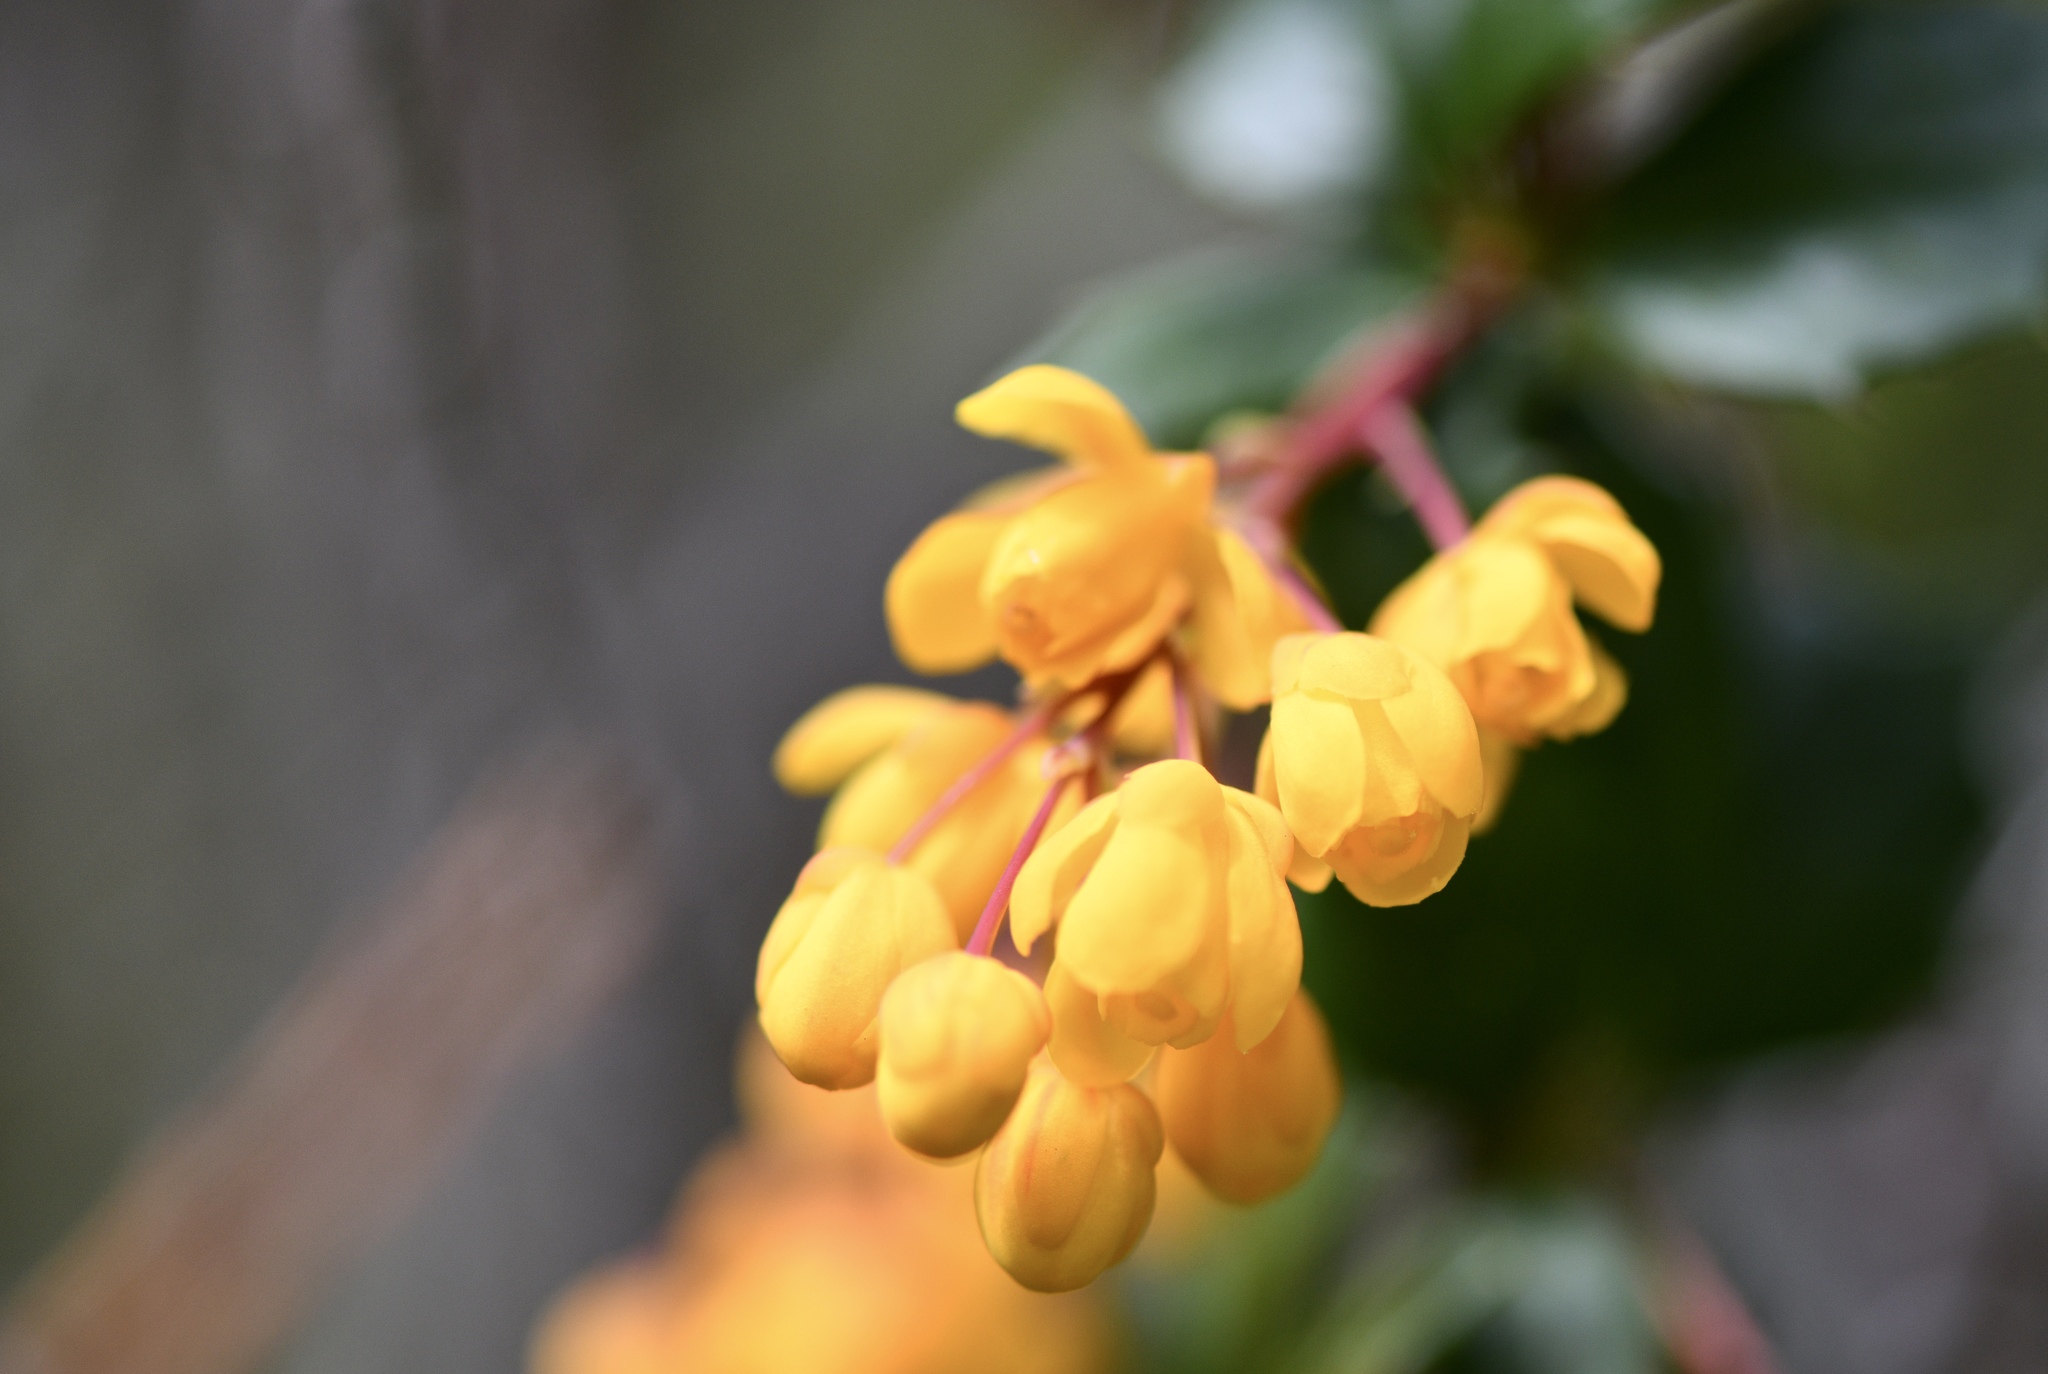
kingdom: Plantae
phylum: Tracheophyta
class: Magnoliopsida
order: Ranunculales
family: Berberidaceae
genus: Berberis
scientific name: Berberis darwinii
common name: Darwin's barberry
